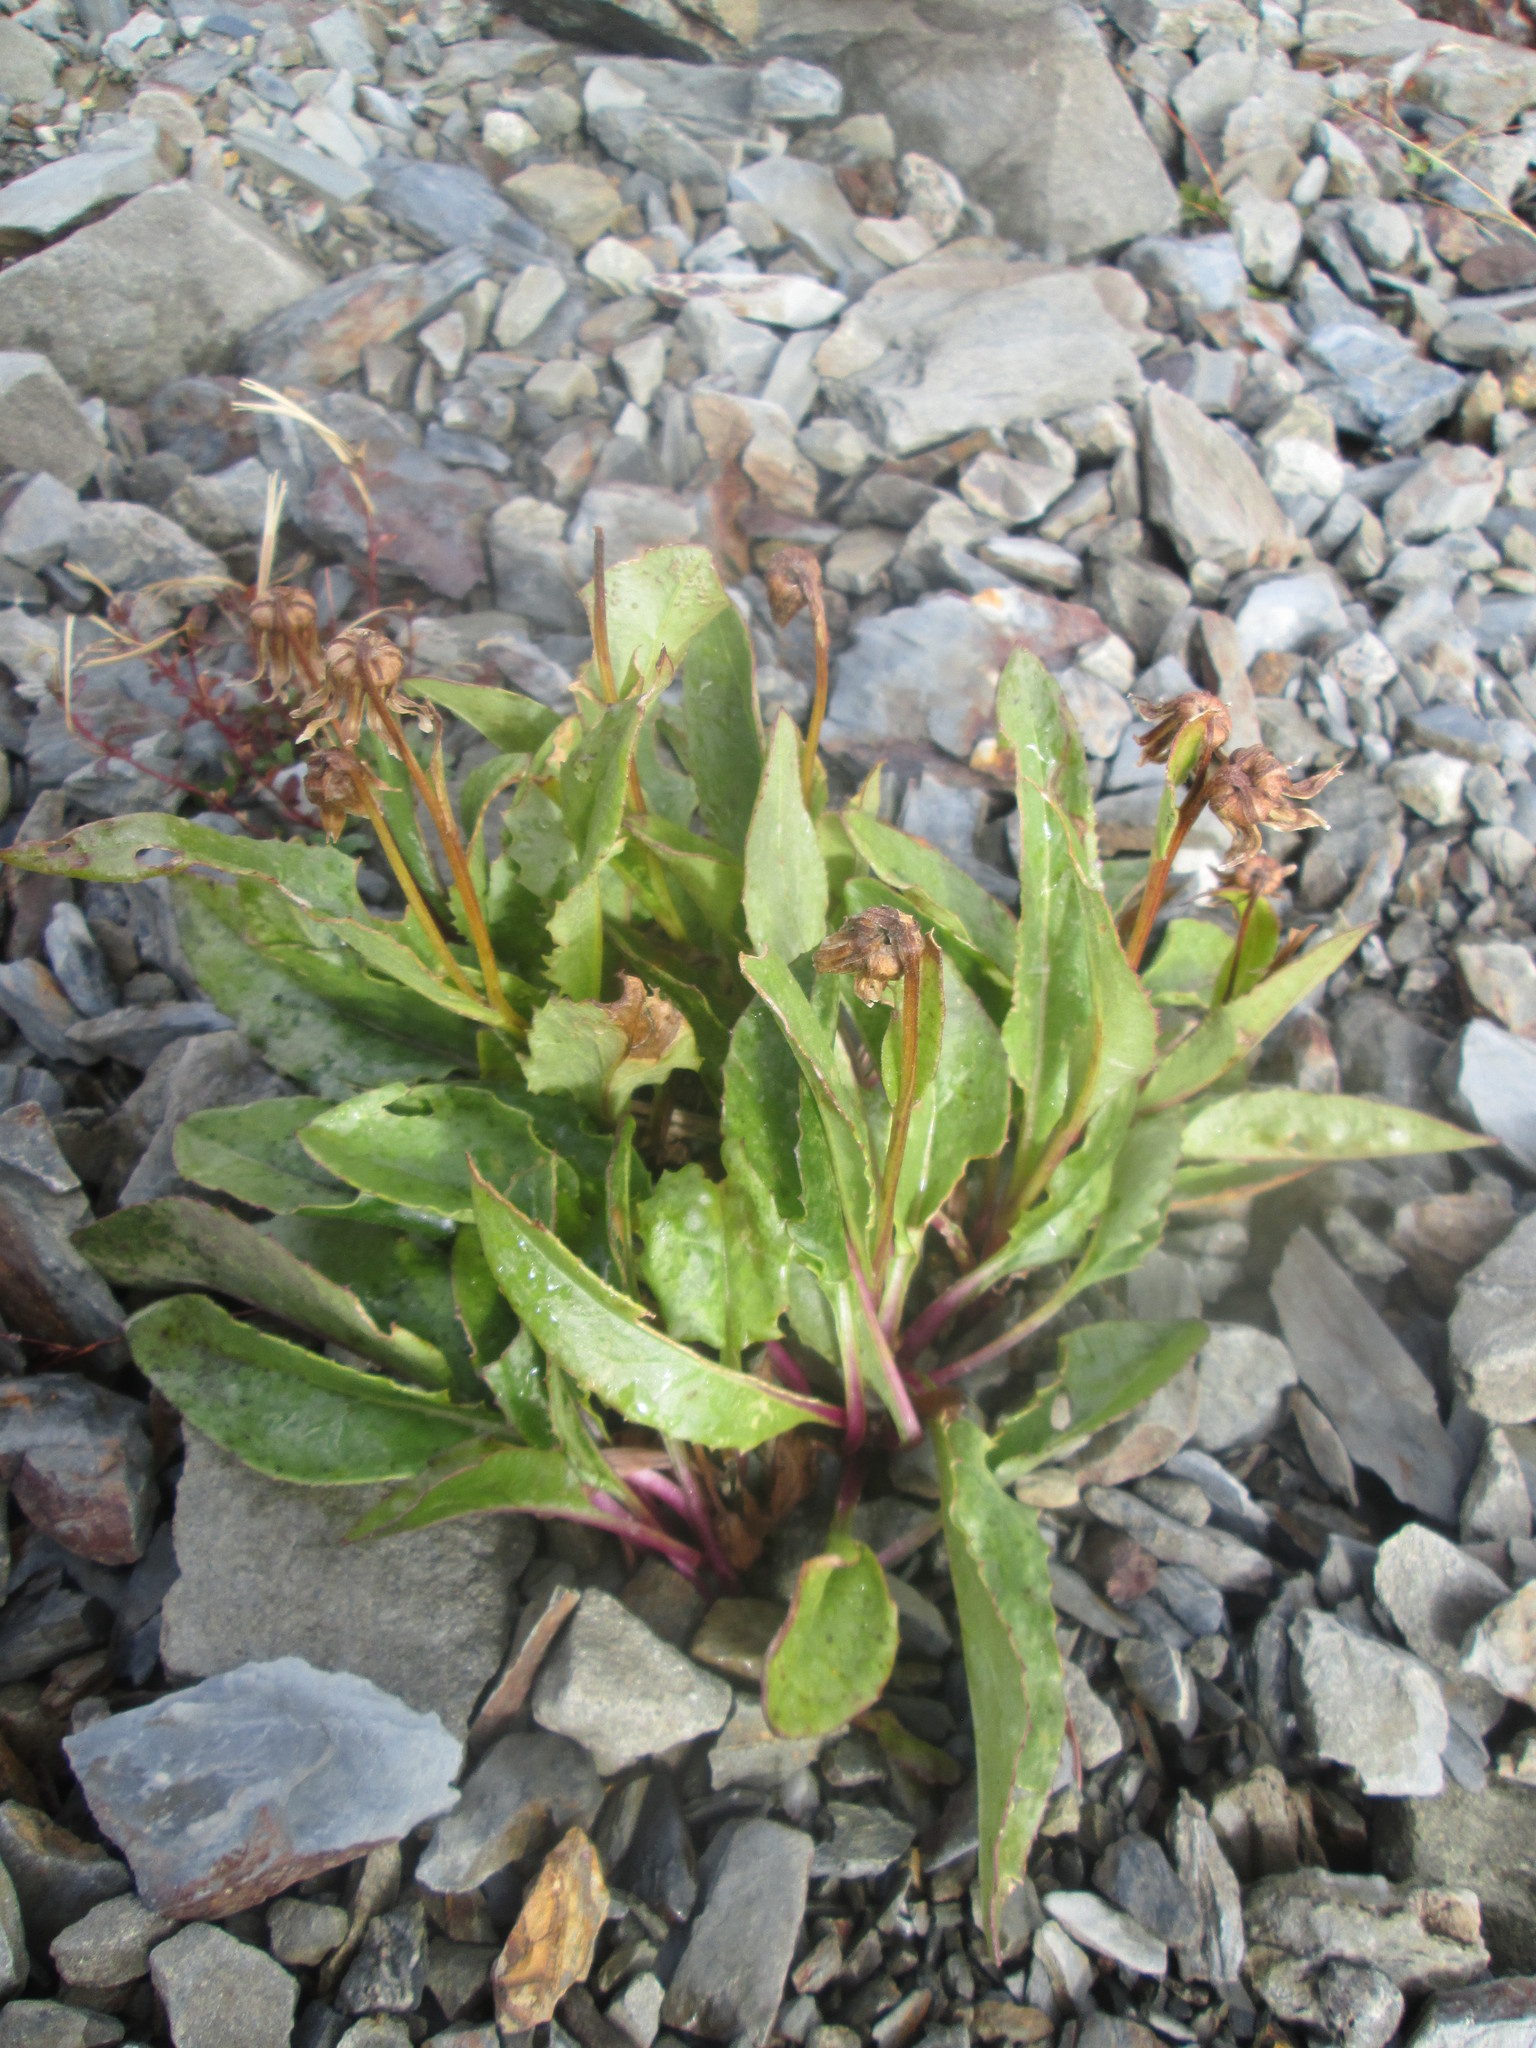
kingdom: Plantae
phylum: Tracheophyta
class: Magnoliopsida
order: Asterales
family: Asteraceae
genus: Senecio
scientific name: Senecio neowebsteri
